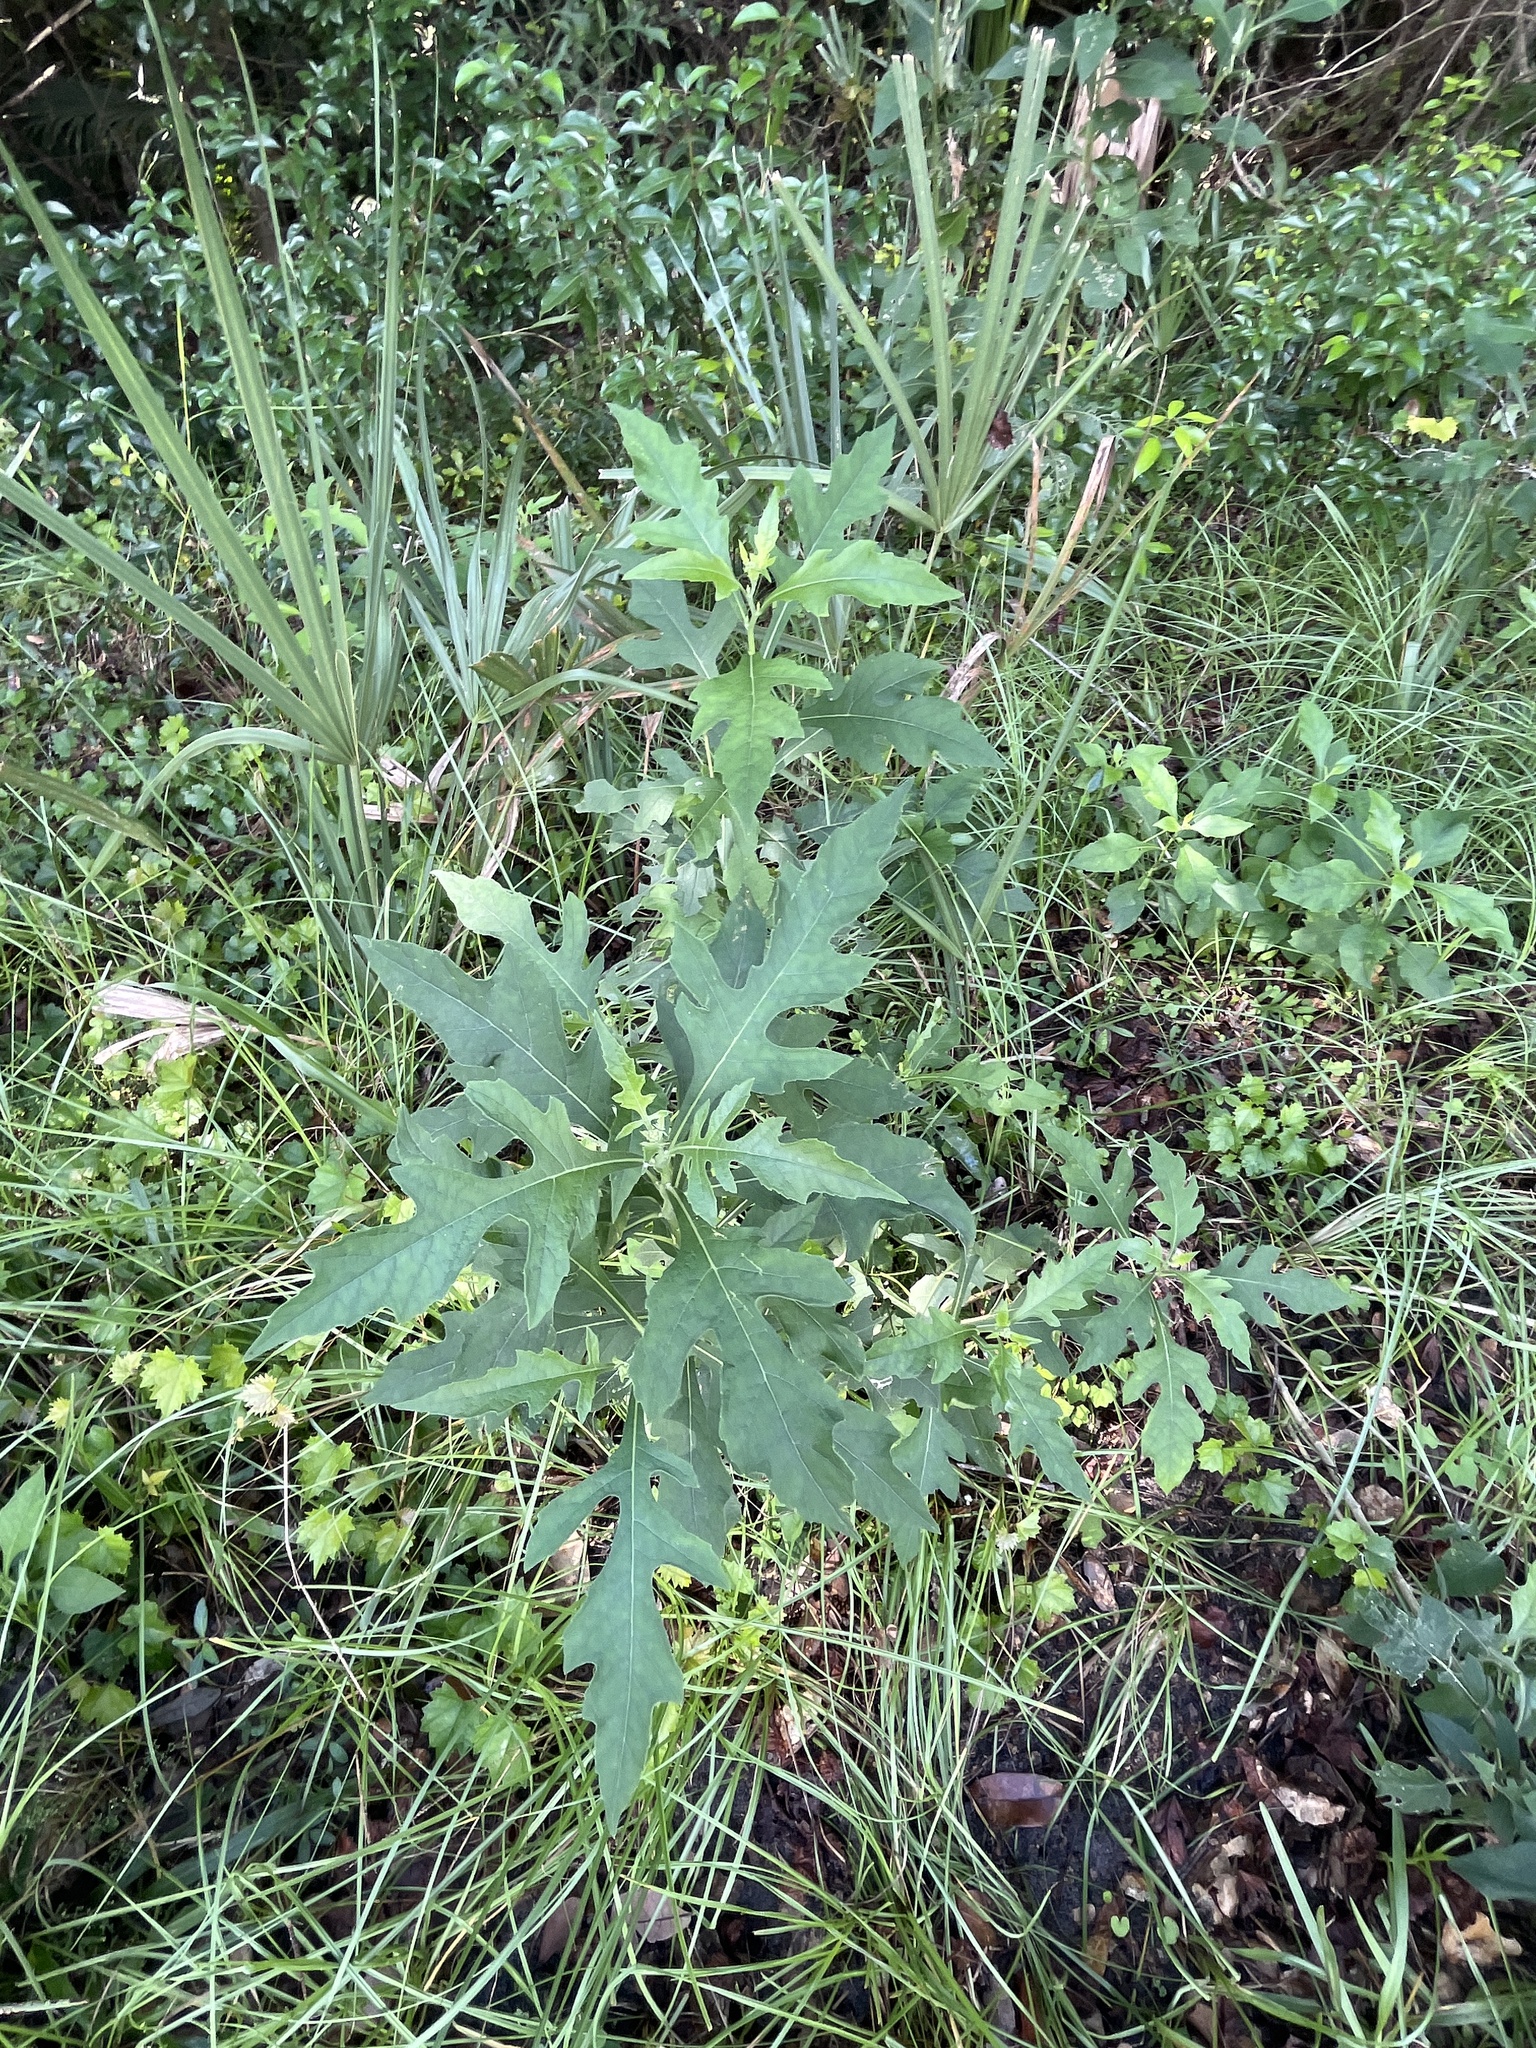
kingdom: Plantae
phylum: Tracheophyta
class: Magnoliopsida
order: Asterales
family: Asteraceae
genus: Verbesina
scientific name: Verbesina virginica
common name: Frostweed
